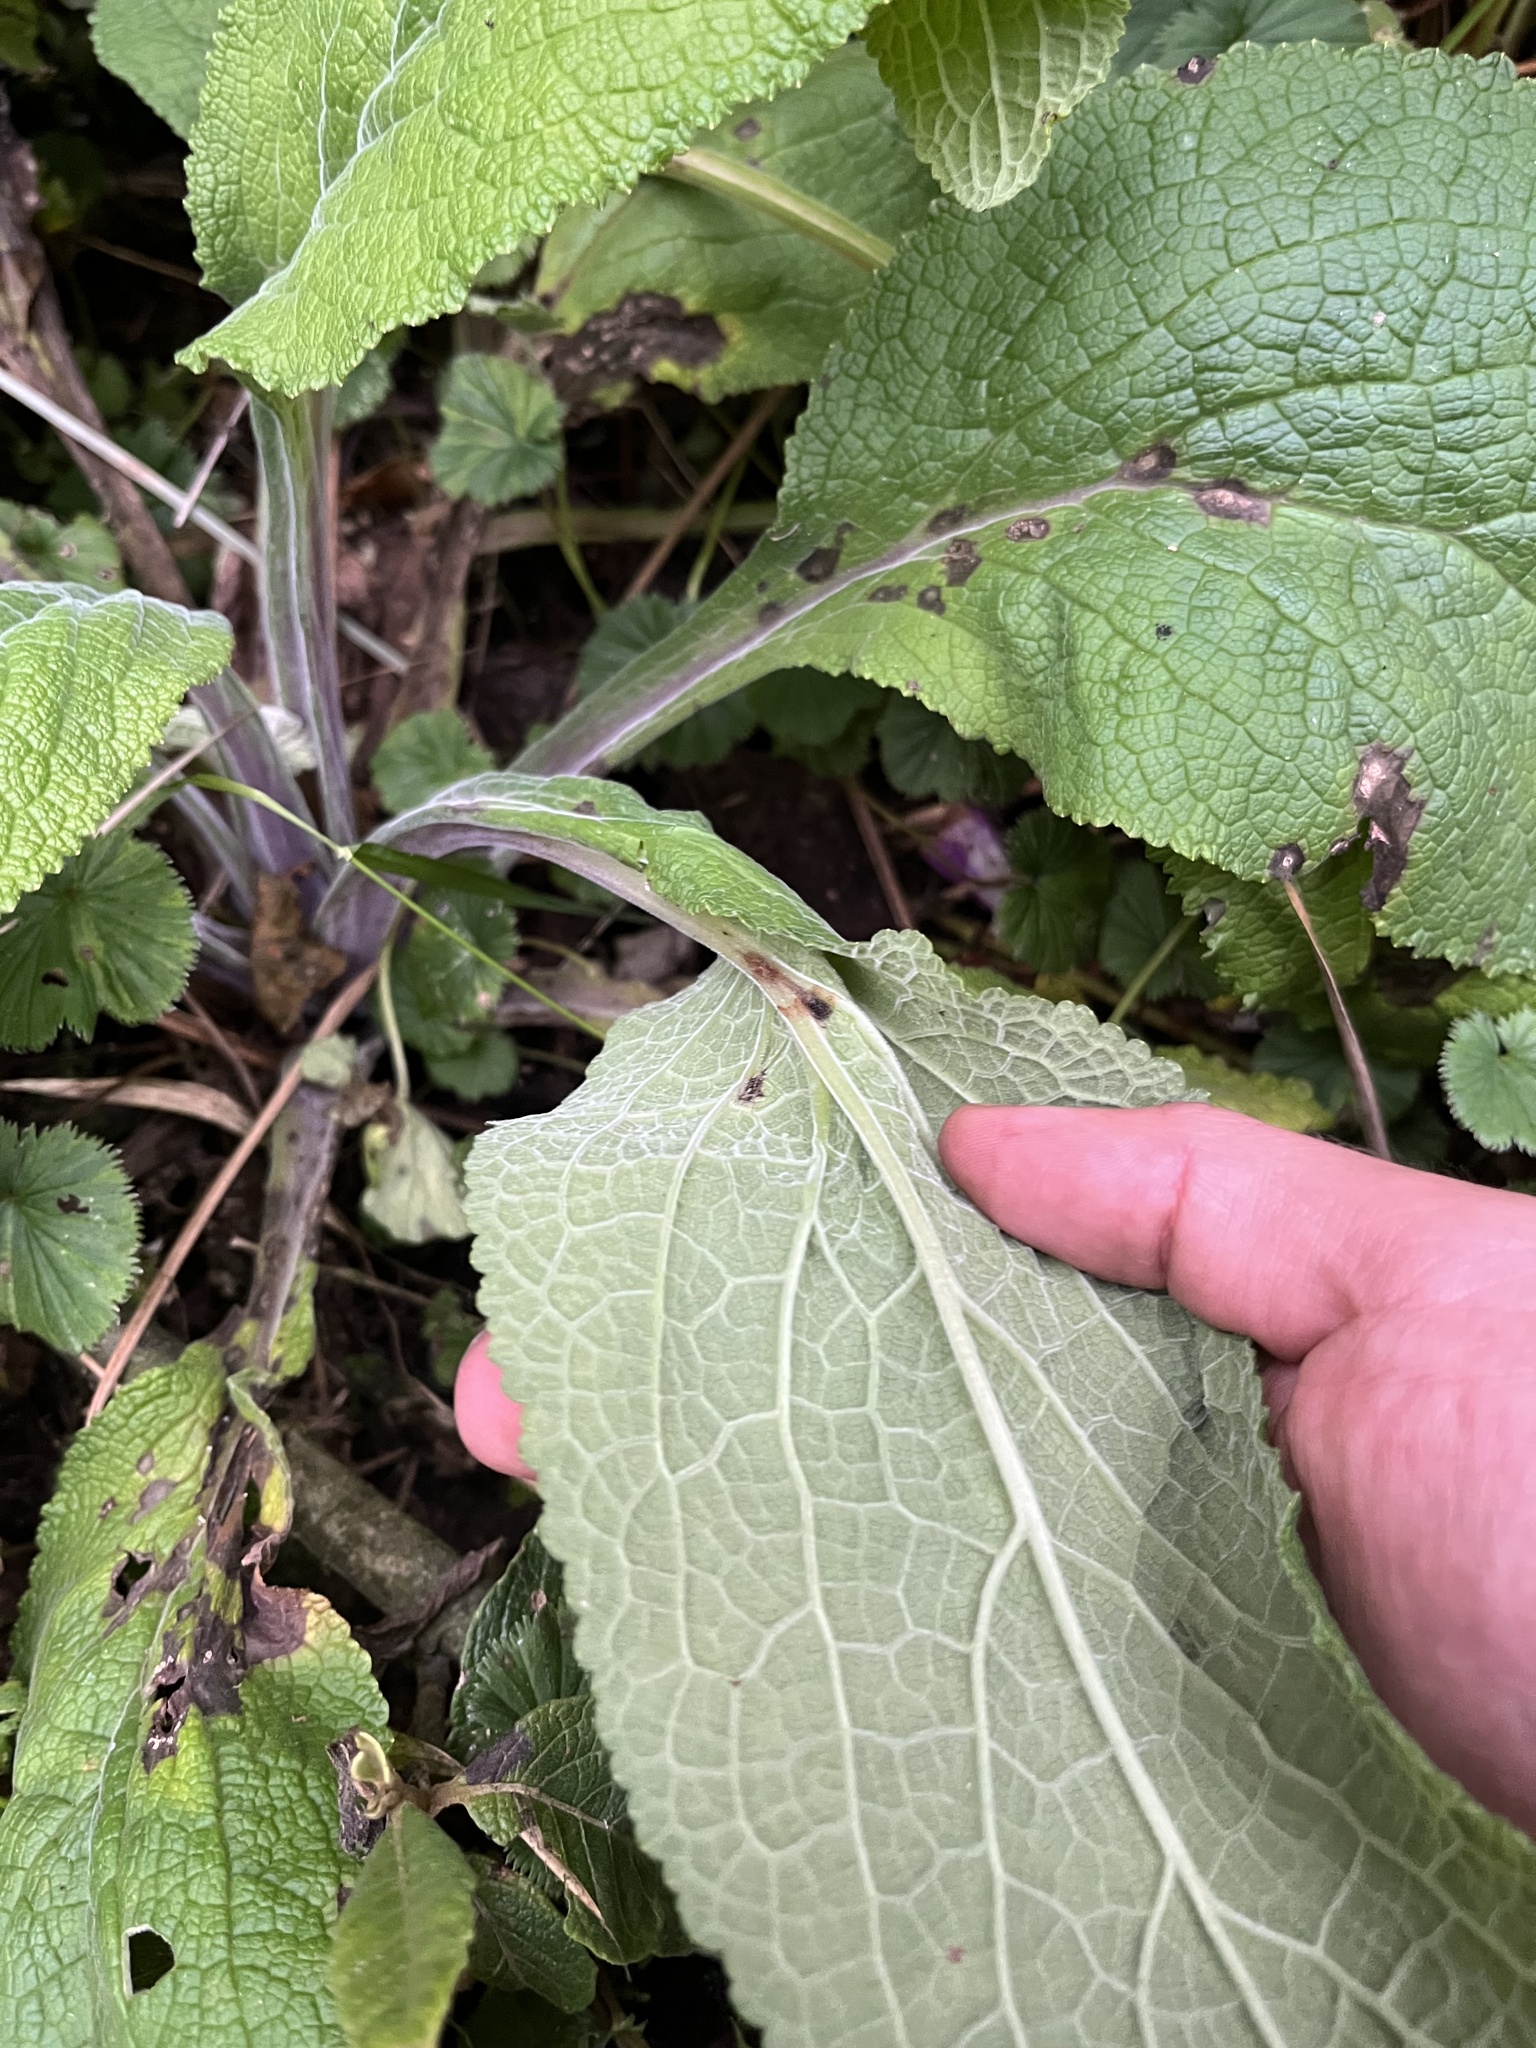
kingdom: Plantae
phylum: Tracheophyta
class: Magnoliopsida
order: Lamiales
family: Plantaginaceae
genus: Digitalis
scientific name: Digitalis purpurea
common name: Foxglove
